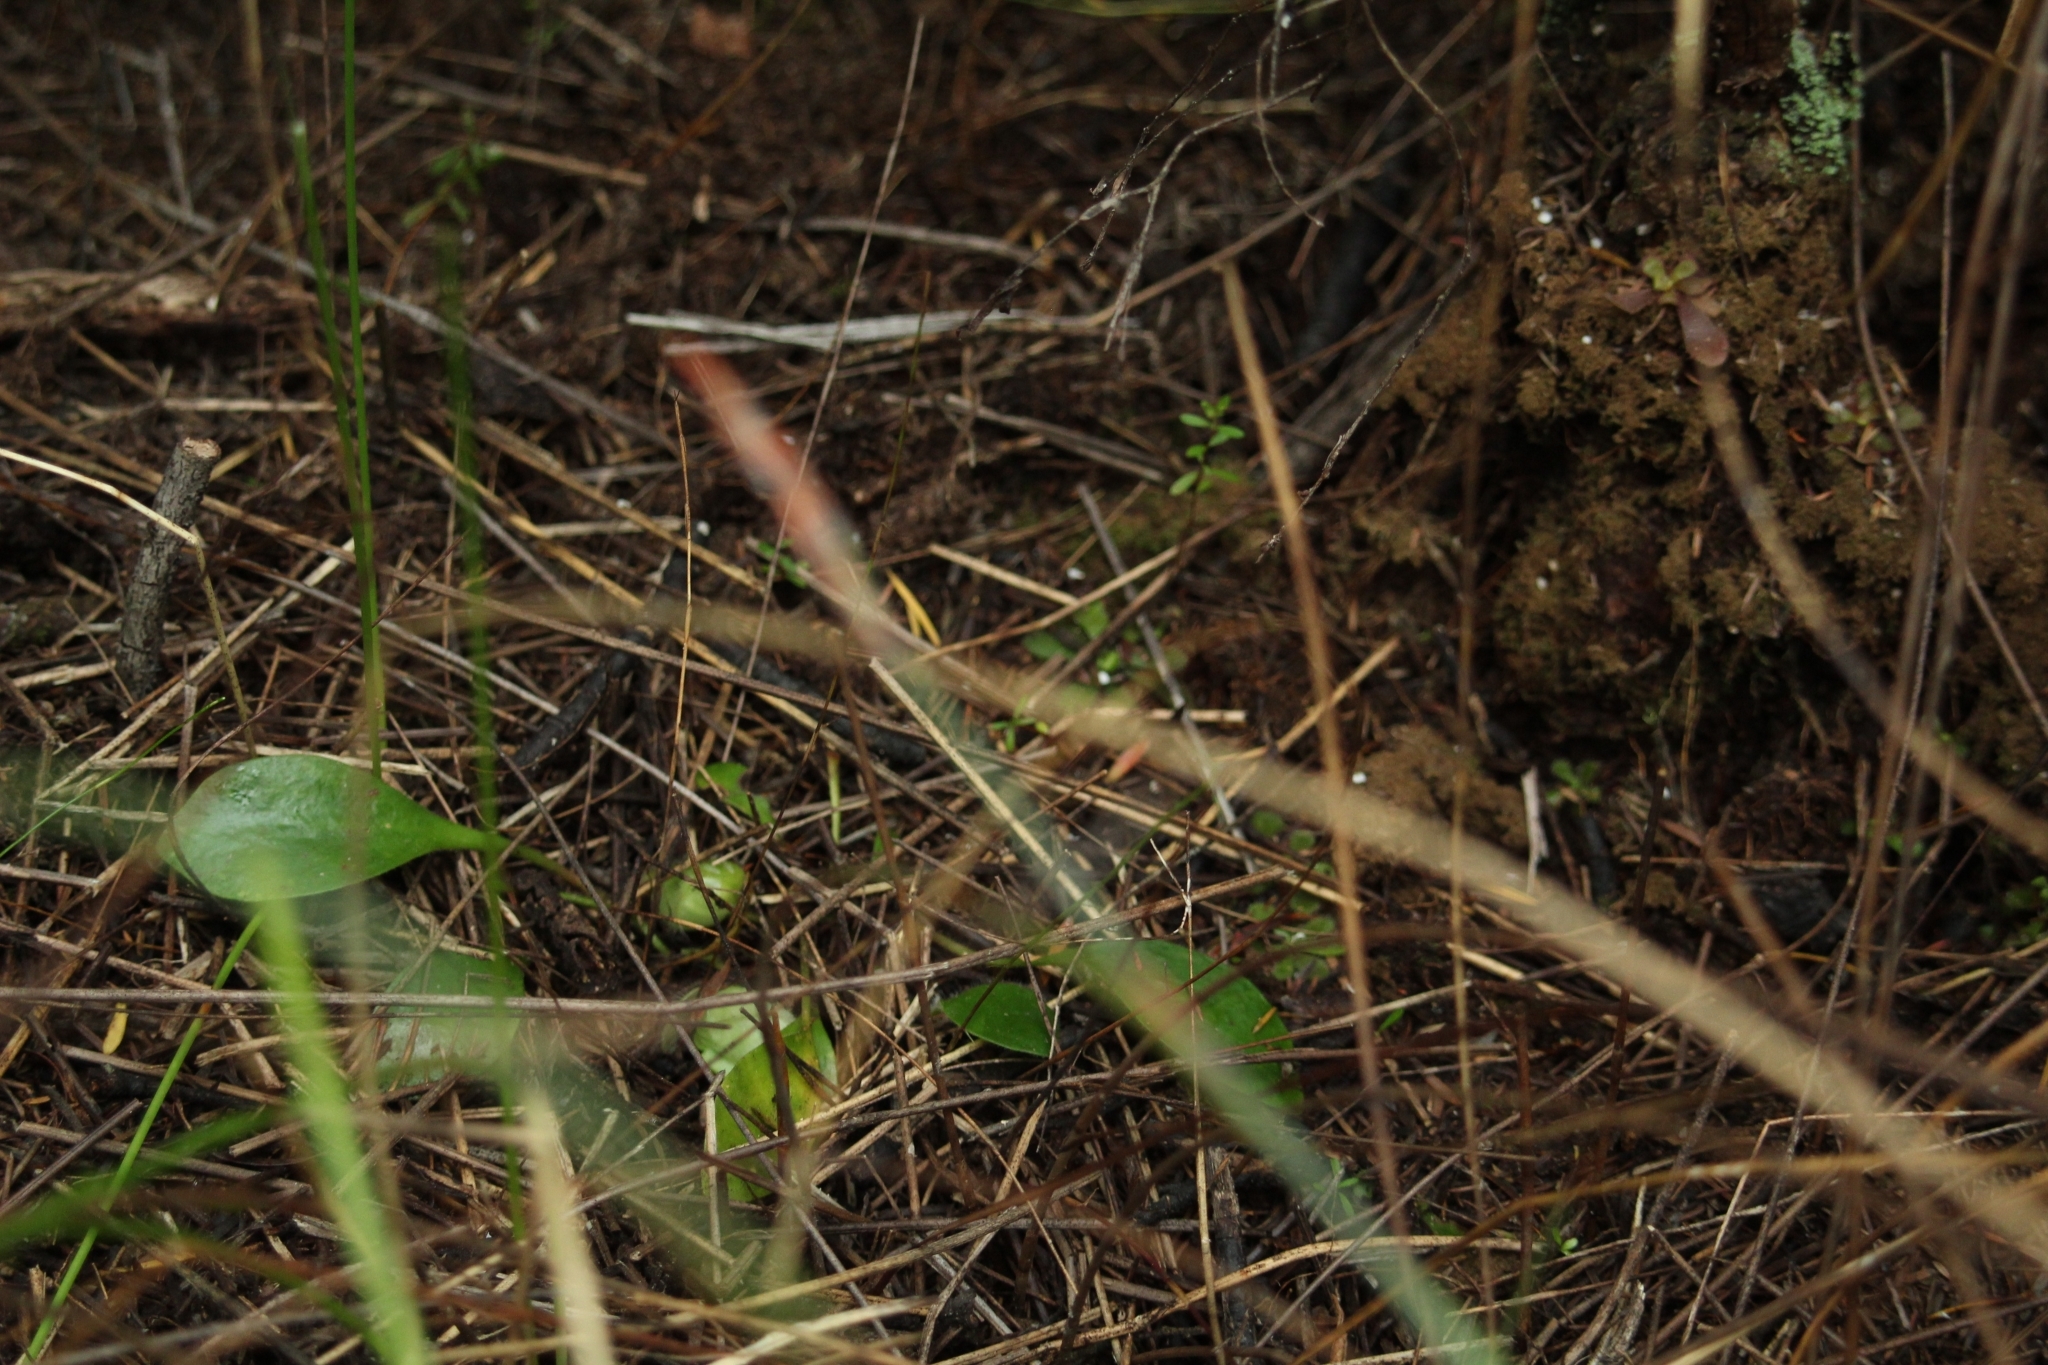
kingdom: Plantae
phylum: Tracheophyta
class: Magnoliopsida
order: Oxalidales
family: Cephalotaceae
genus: Cephalotus
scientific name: Cephalotus follicularis
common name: Australian pitcher plant
